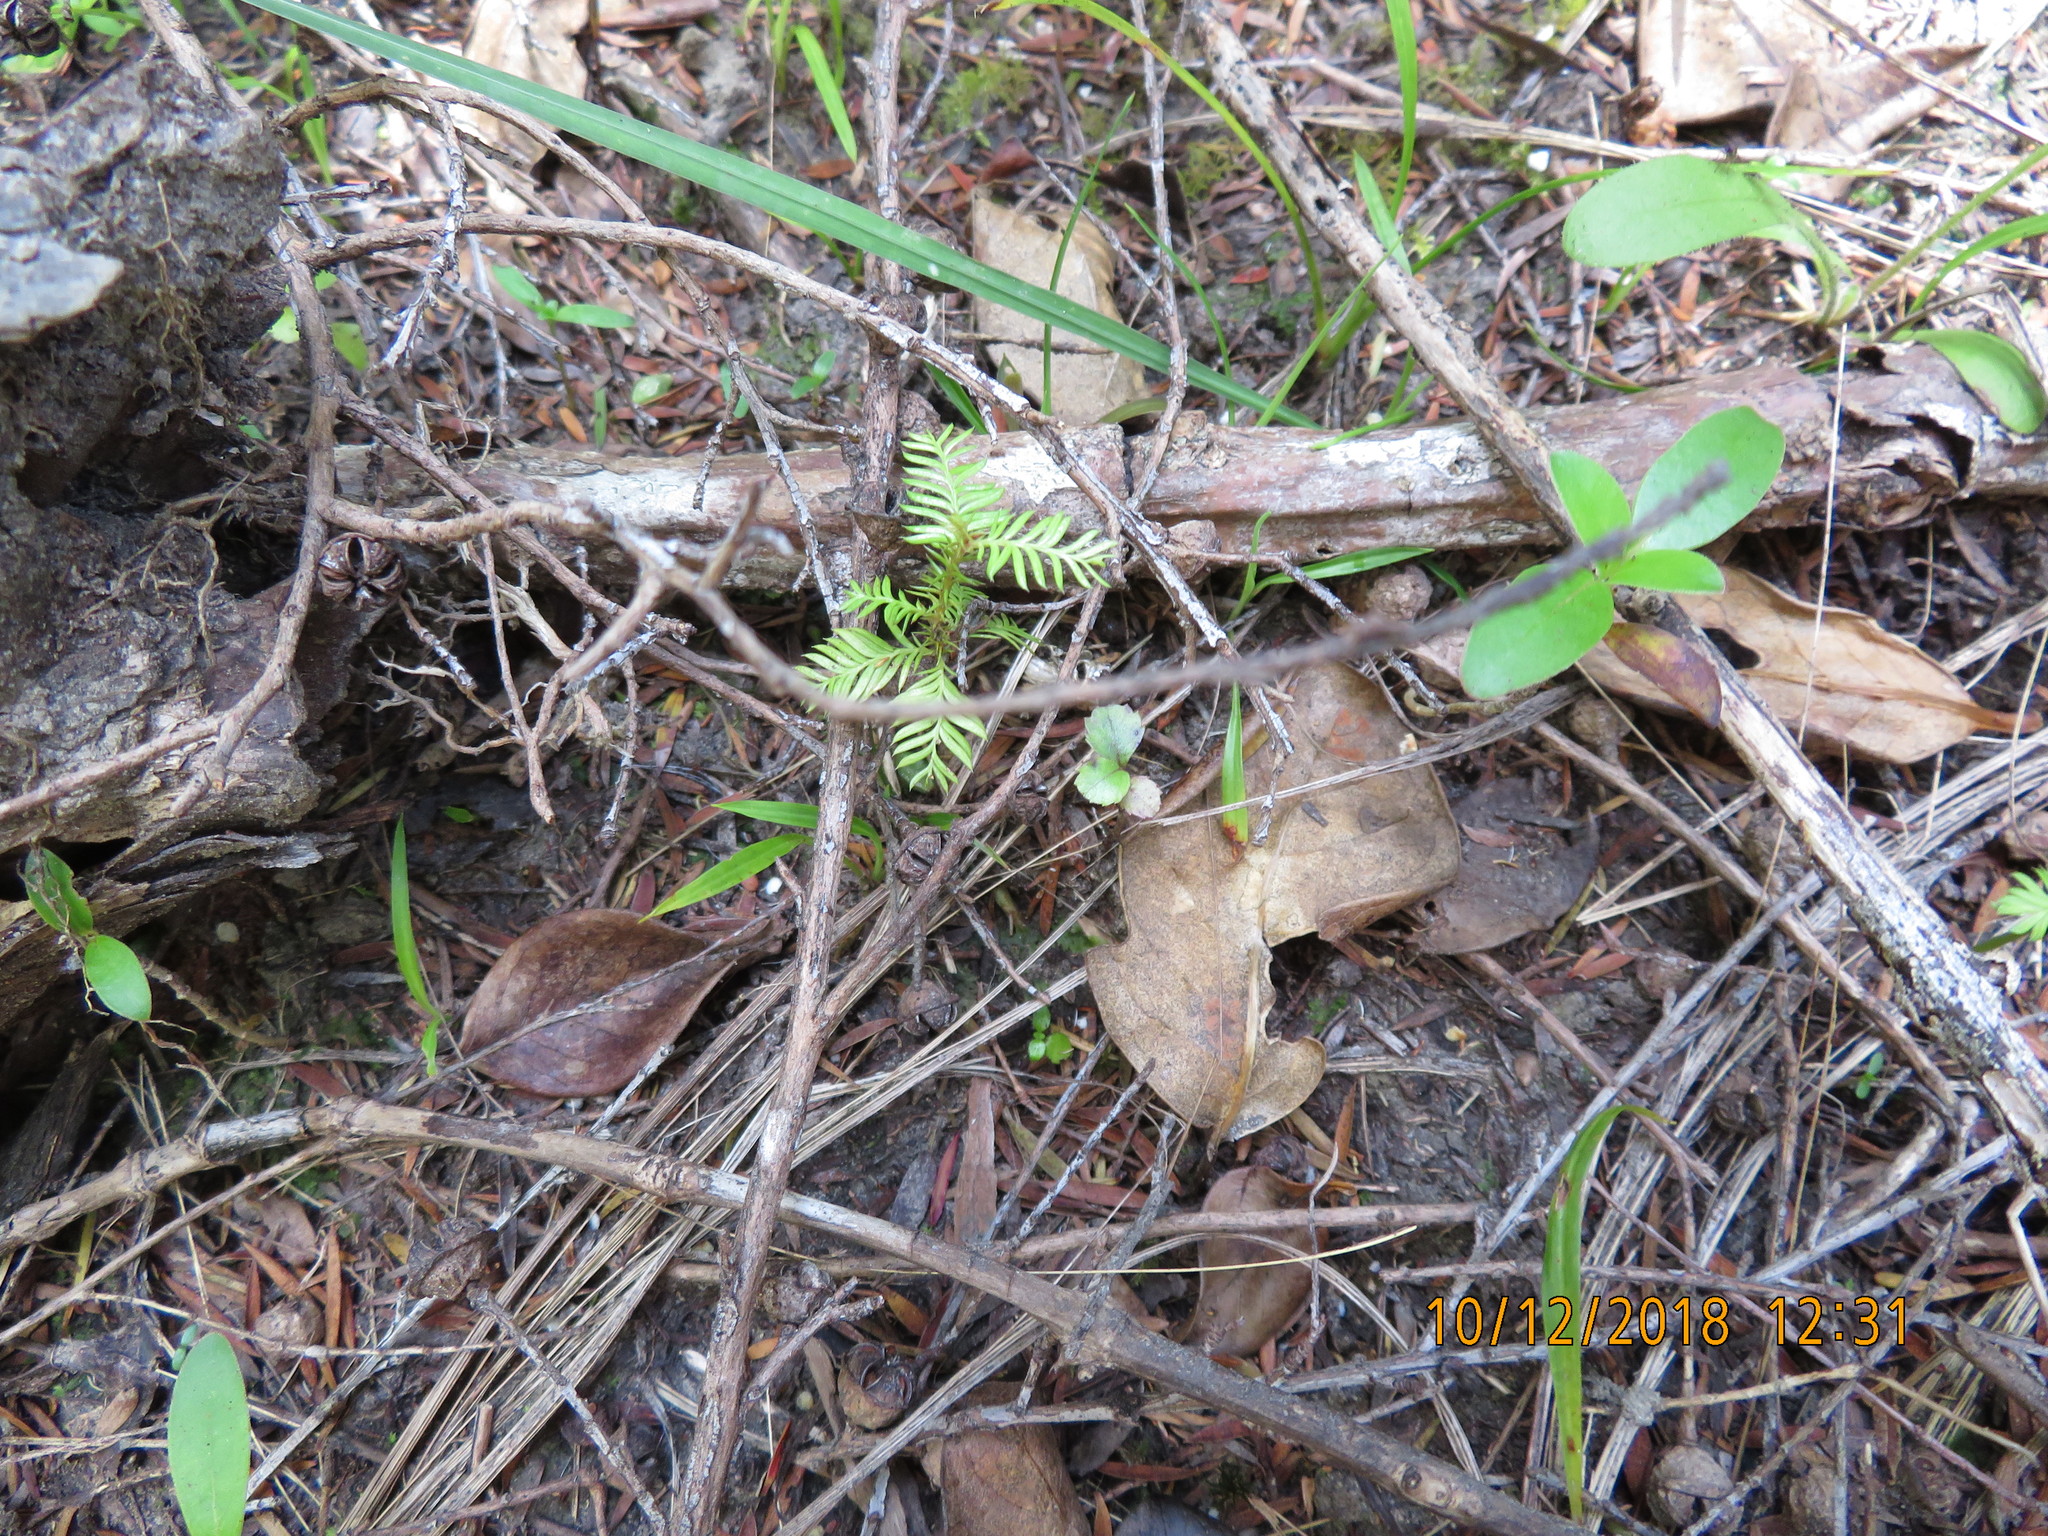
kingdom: Plantae
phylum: Tracheophyta
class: Pinopsida
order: Pinales
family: Podocarpaceae
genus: Dacrycarpus
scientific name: Dacrycarpus dacrydioides
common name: White pine
